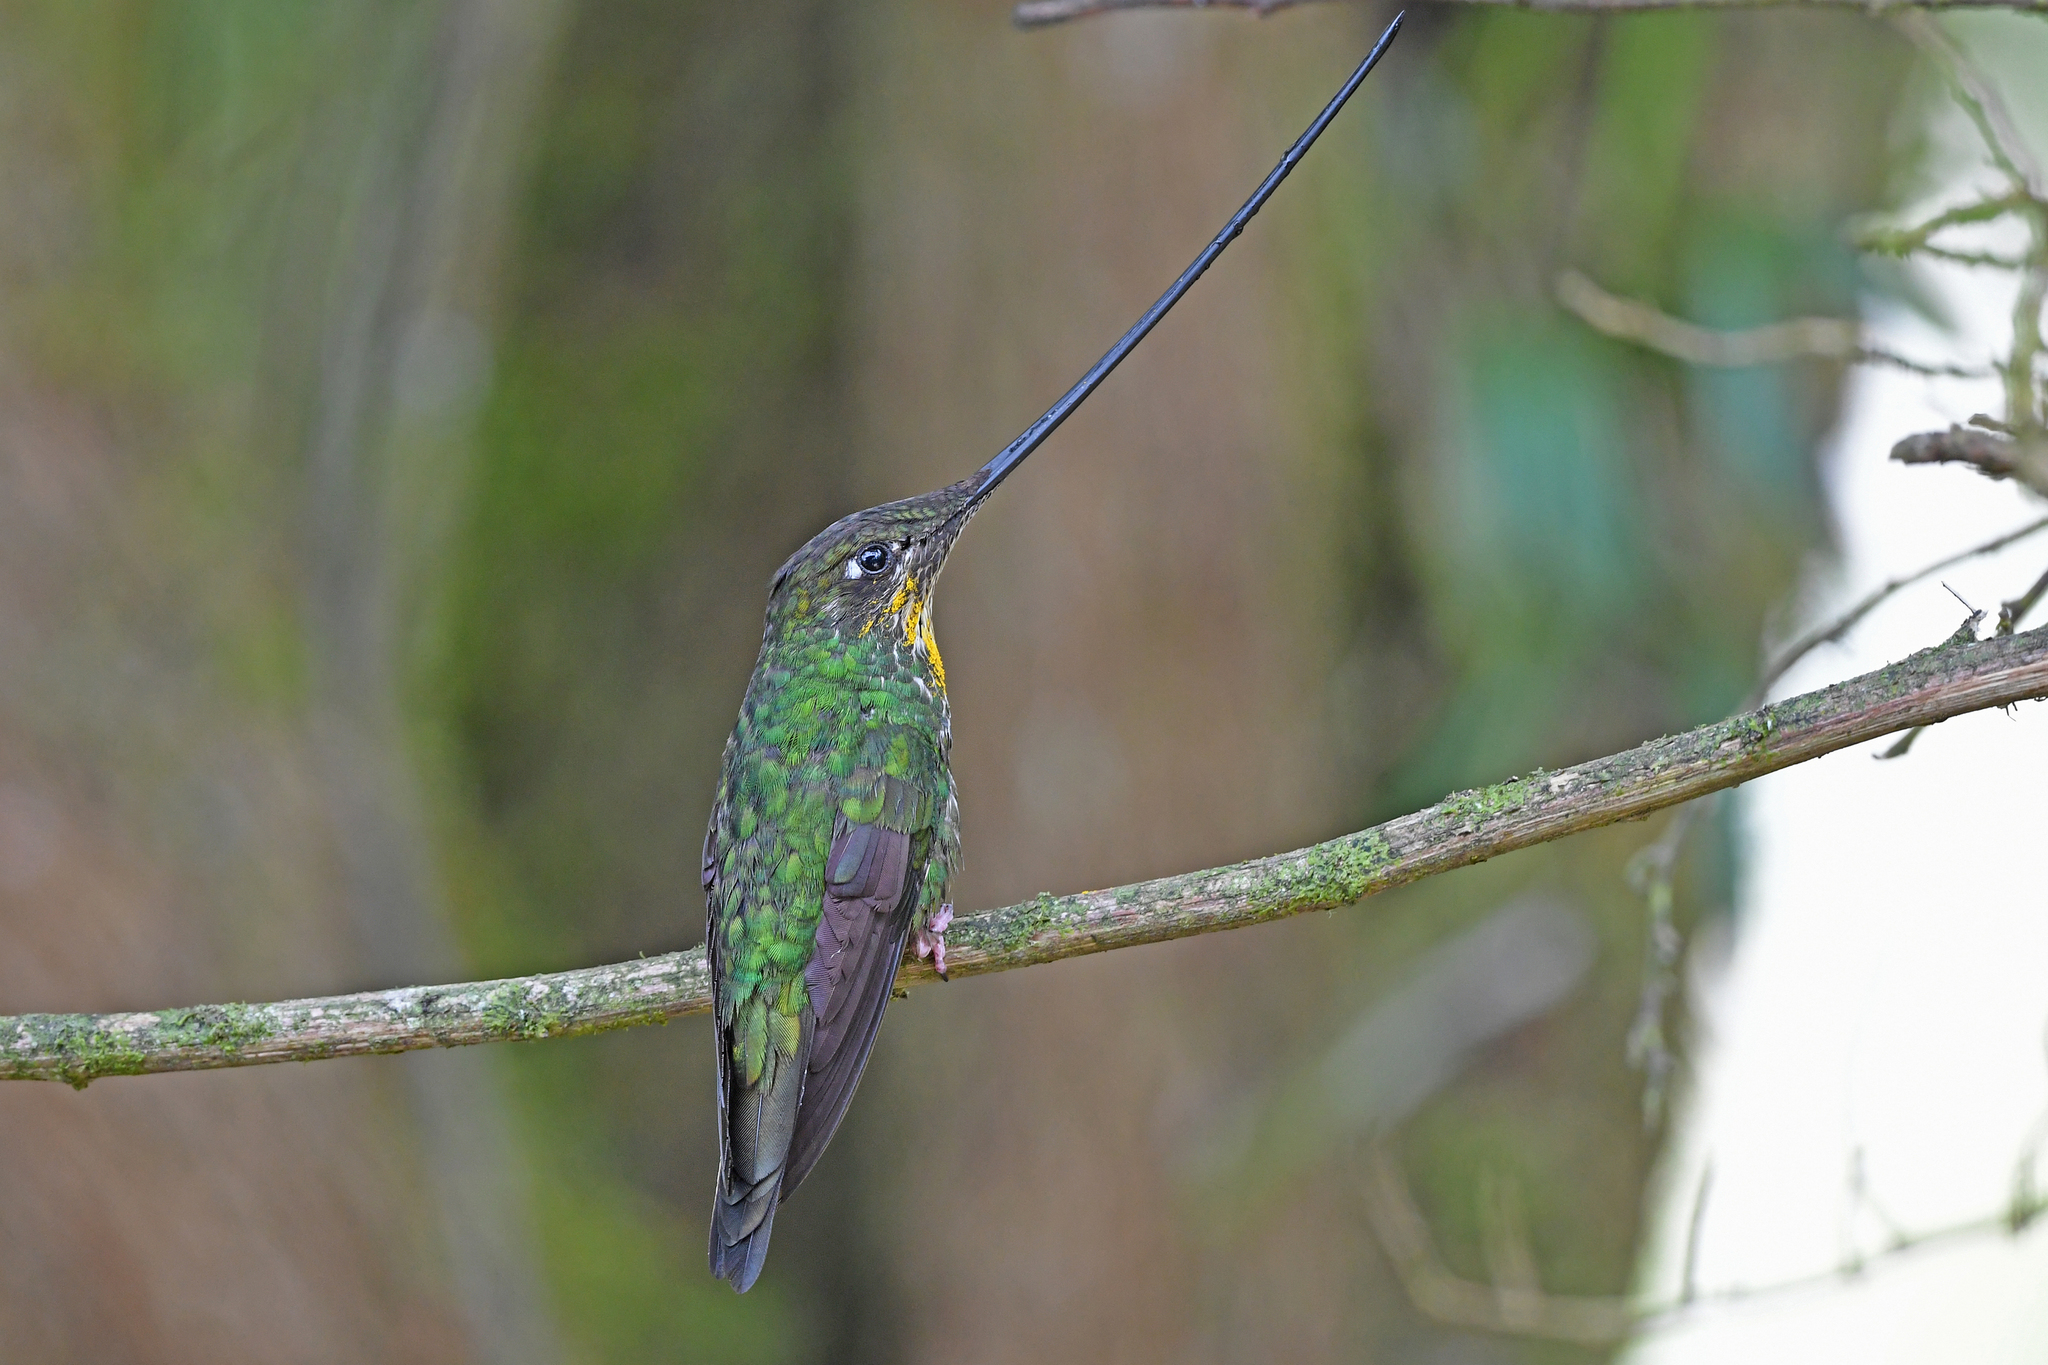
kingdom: Animalia
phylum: Chordata
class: Aves
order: Apodiformes
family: Trochilidae
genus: Ensifera
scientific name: Ensifera ensifera
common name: Sword-billed hummingbird
